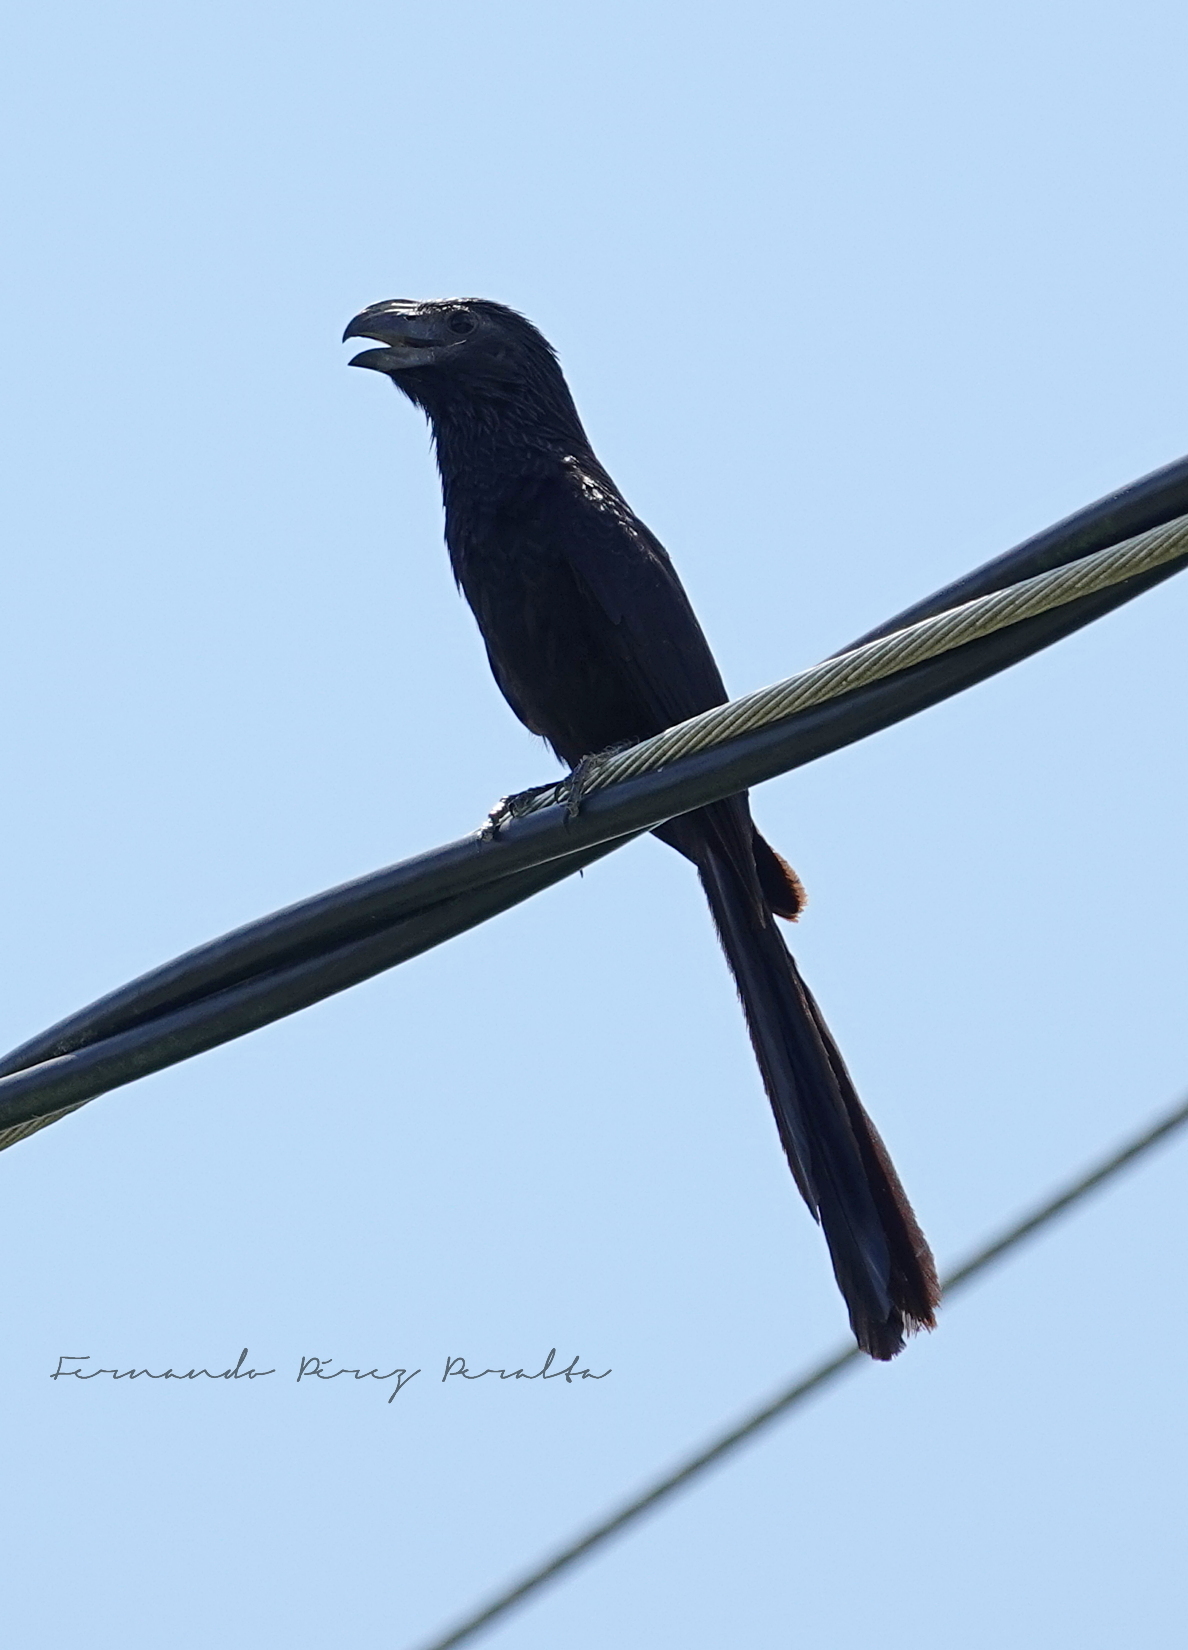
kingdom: Animalia
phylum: Chordata
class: Aves
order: Cuculiformes
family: Cuculidae
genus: Crotophaga
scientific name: Crotophaga sulcirostris
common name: Groove-billed ani
